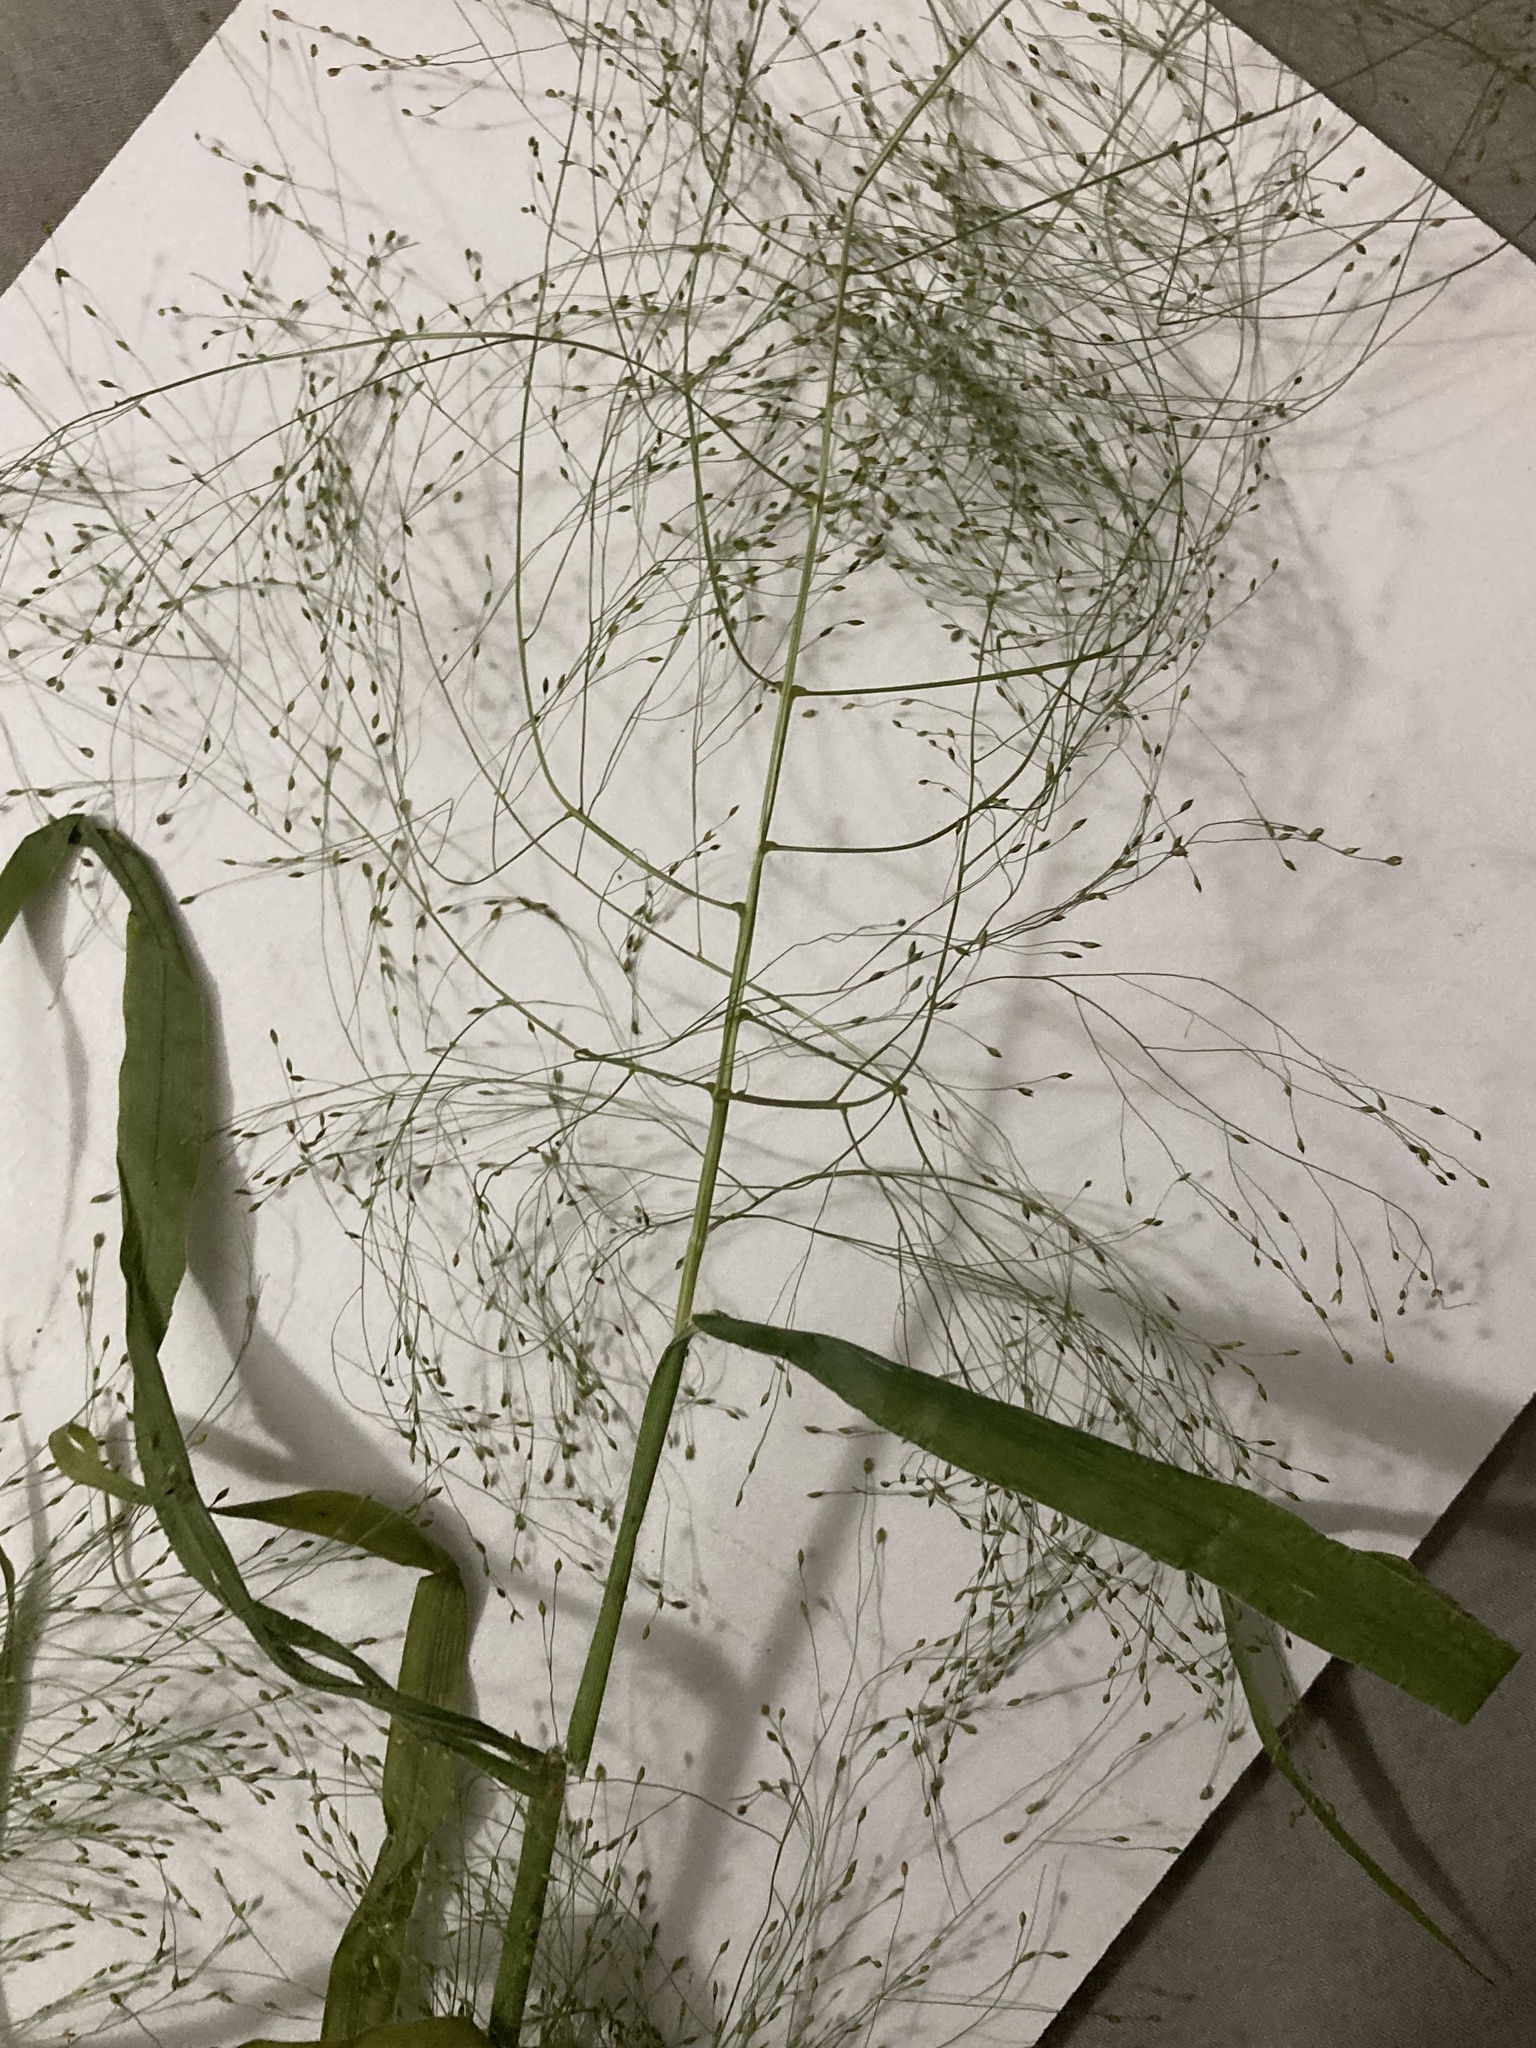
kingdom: Plantae
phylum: Tracheophyta
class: Liliopsida
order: Poales
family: Poaceae
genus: Panicum
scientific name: Panicum capillare
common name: Witch-grass
